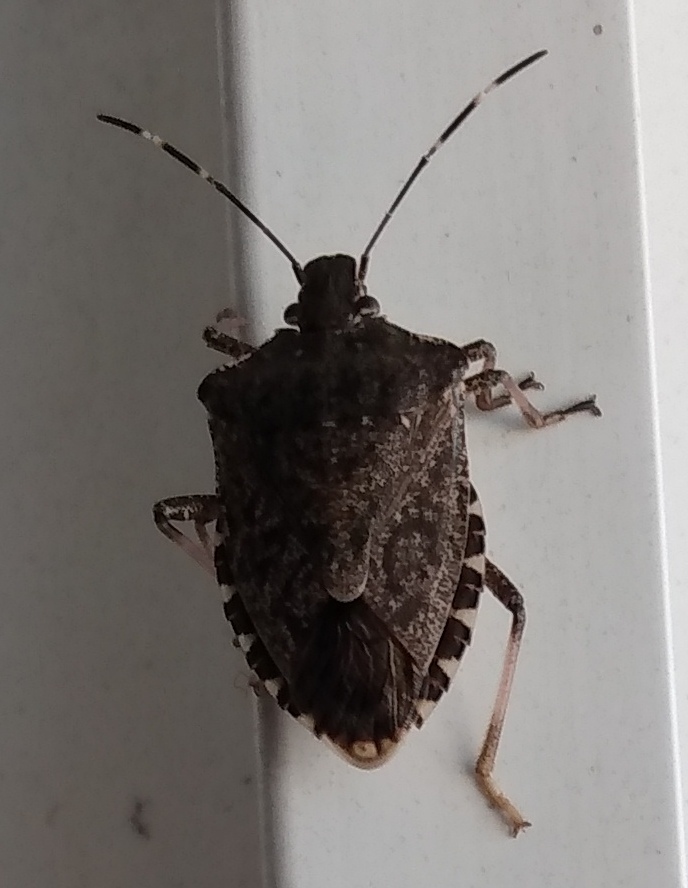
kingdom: Animalia
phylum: Arthropoda
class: Insecta
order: Hemiptera
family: Pentatomidae
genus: Halyomorpha
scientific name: Halyomorpha halys
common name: Brown marmorated stink bug
